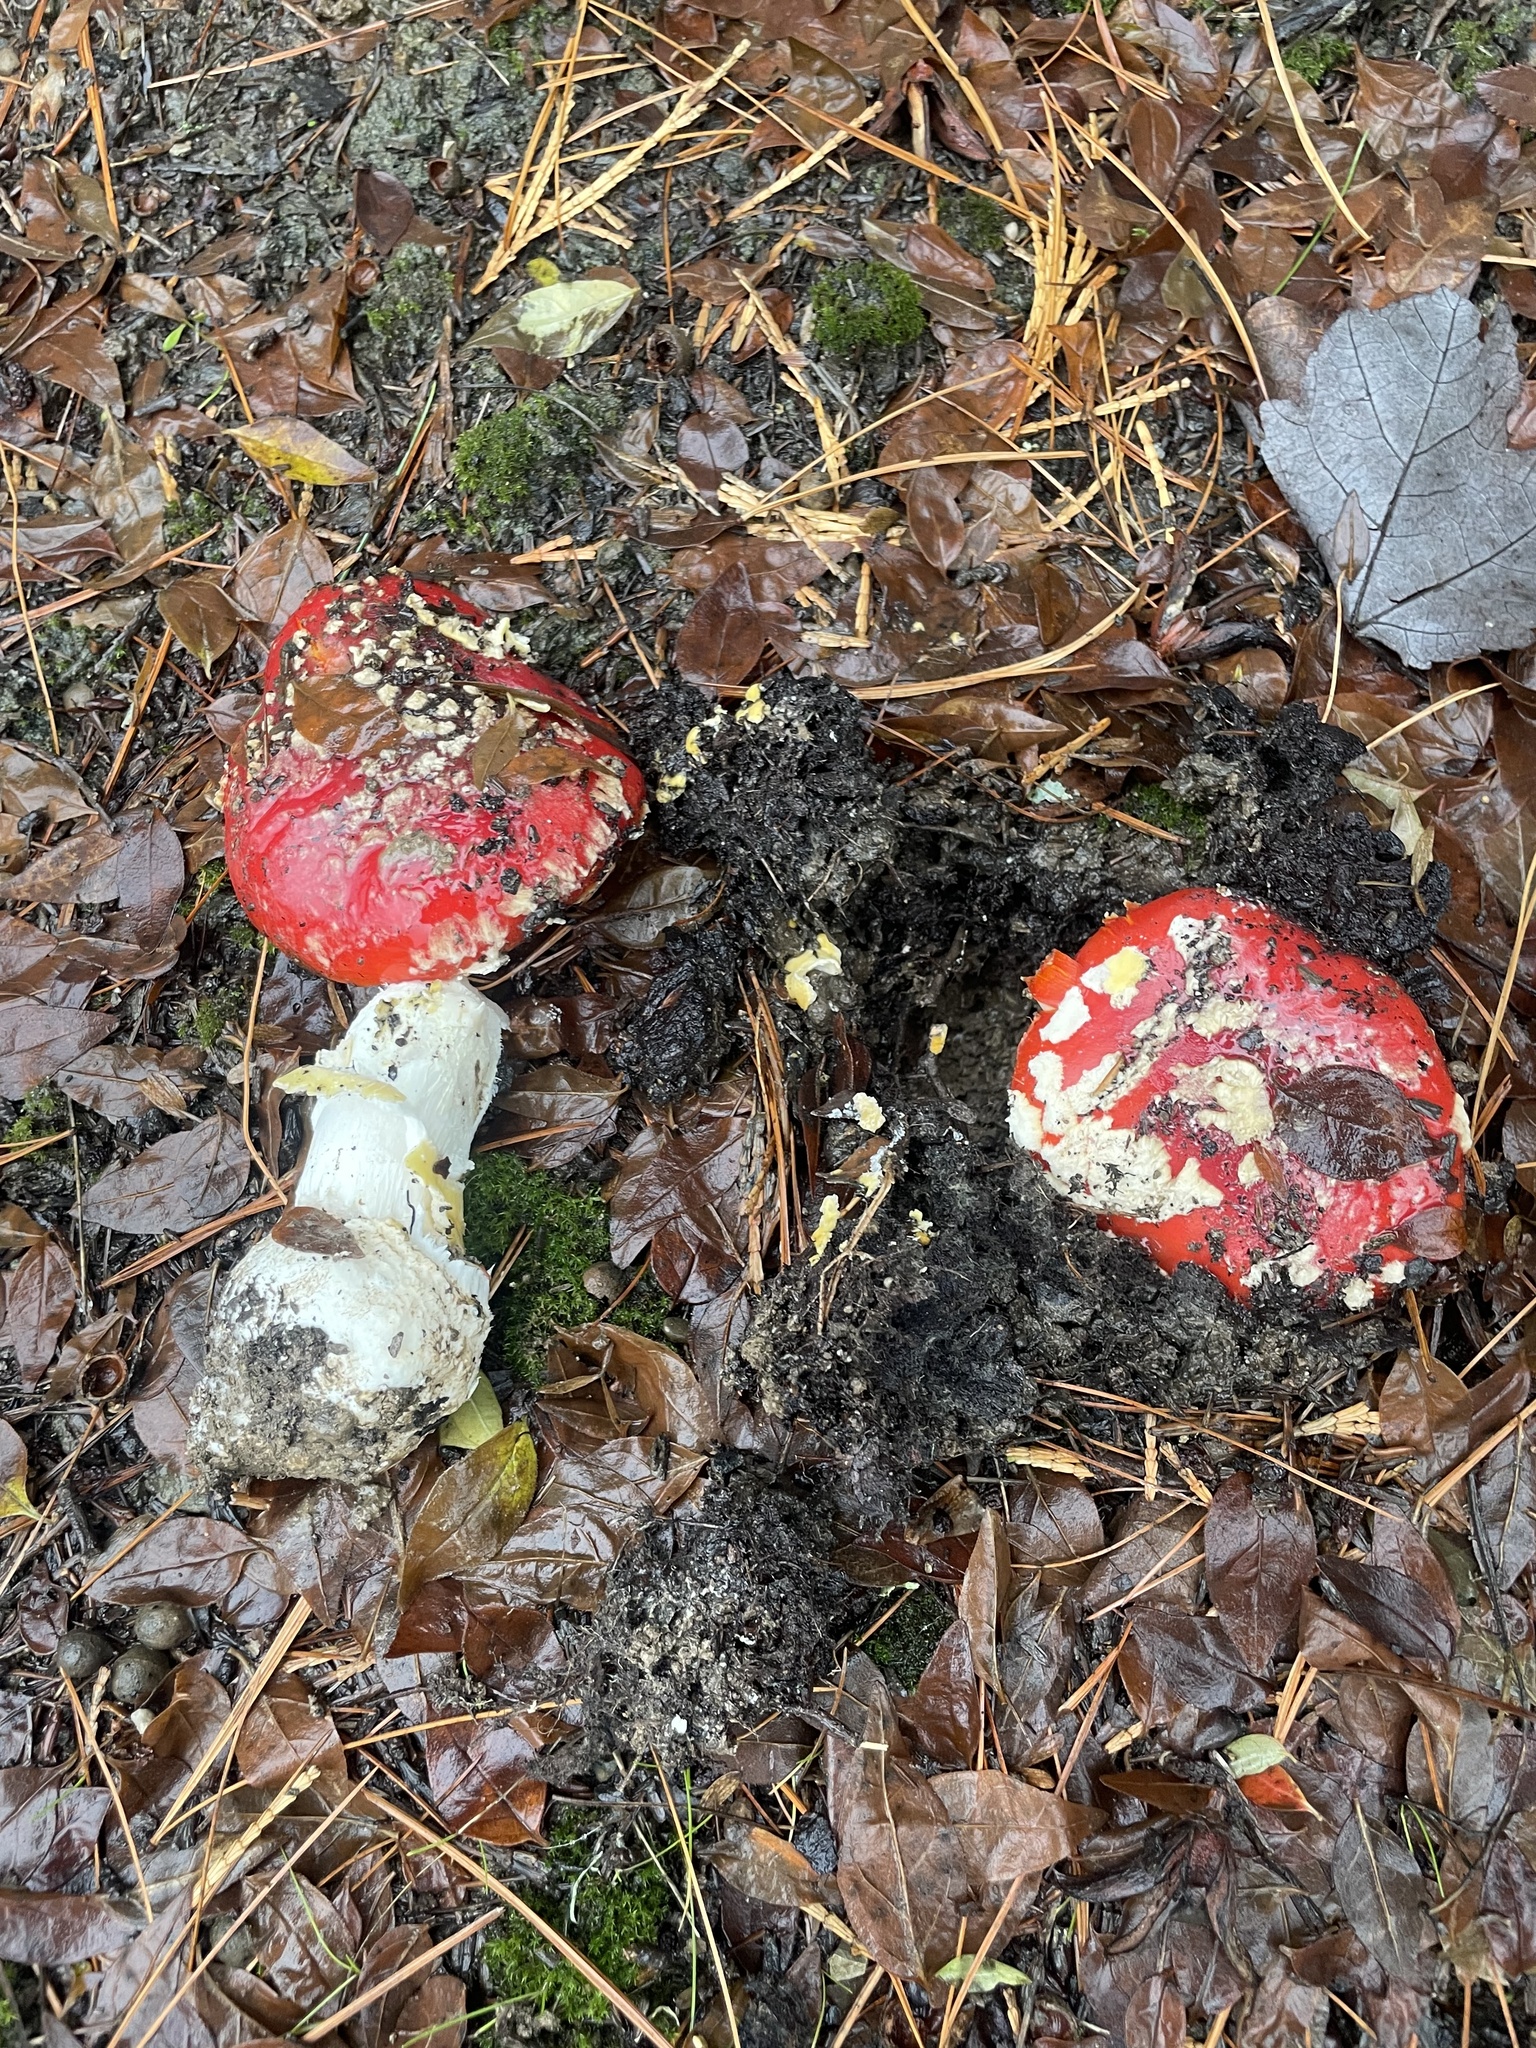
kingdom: Fungi
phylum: Basidiomycota
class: Agaricomycetes
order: Agaricales
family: Amanitaceae
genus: Amanita
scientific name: Amanita muscaria
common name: Fly agaric
